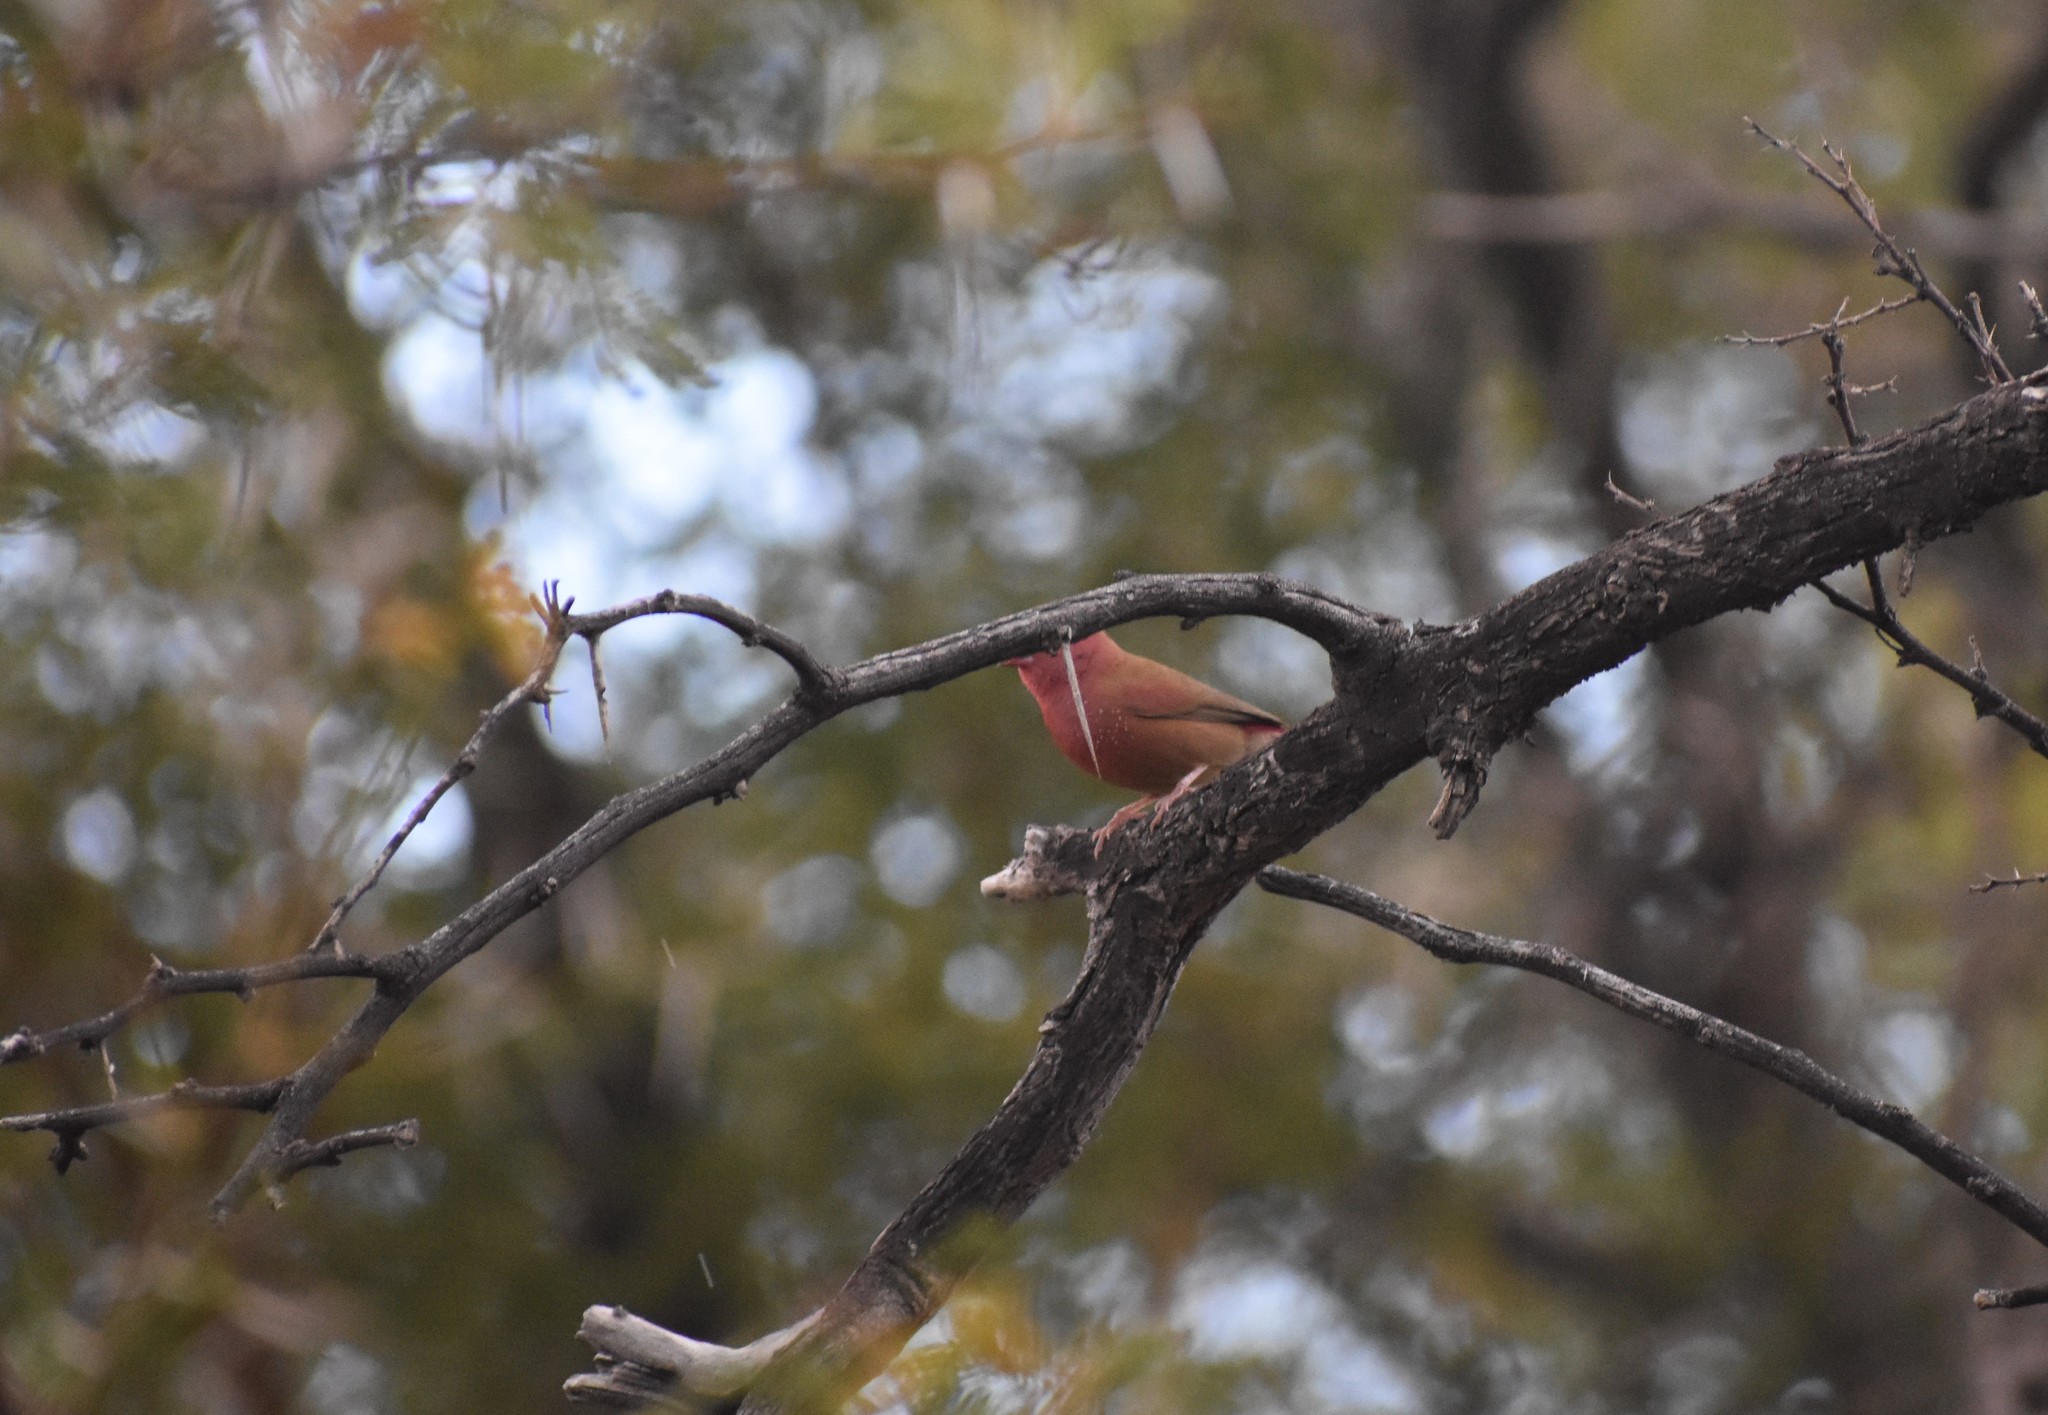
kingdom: Animalia
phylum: Chordata
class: Aves
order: Passeriformes
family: Estrildidae
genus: Lagonosticta
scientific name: Lagonosticta senegala
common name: Red-billed firefinch
